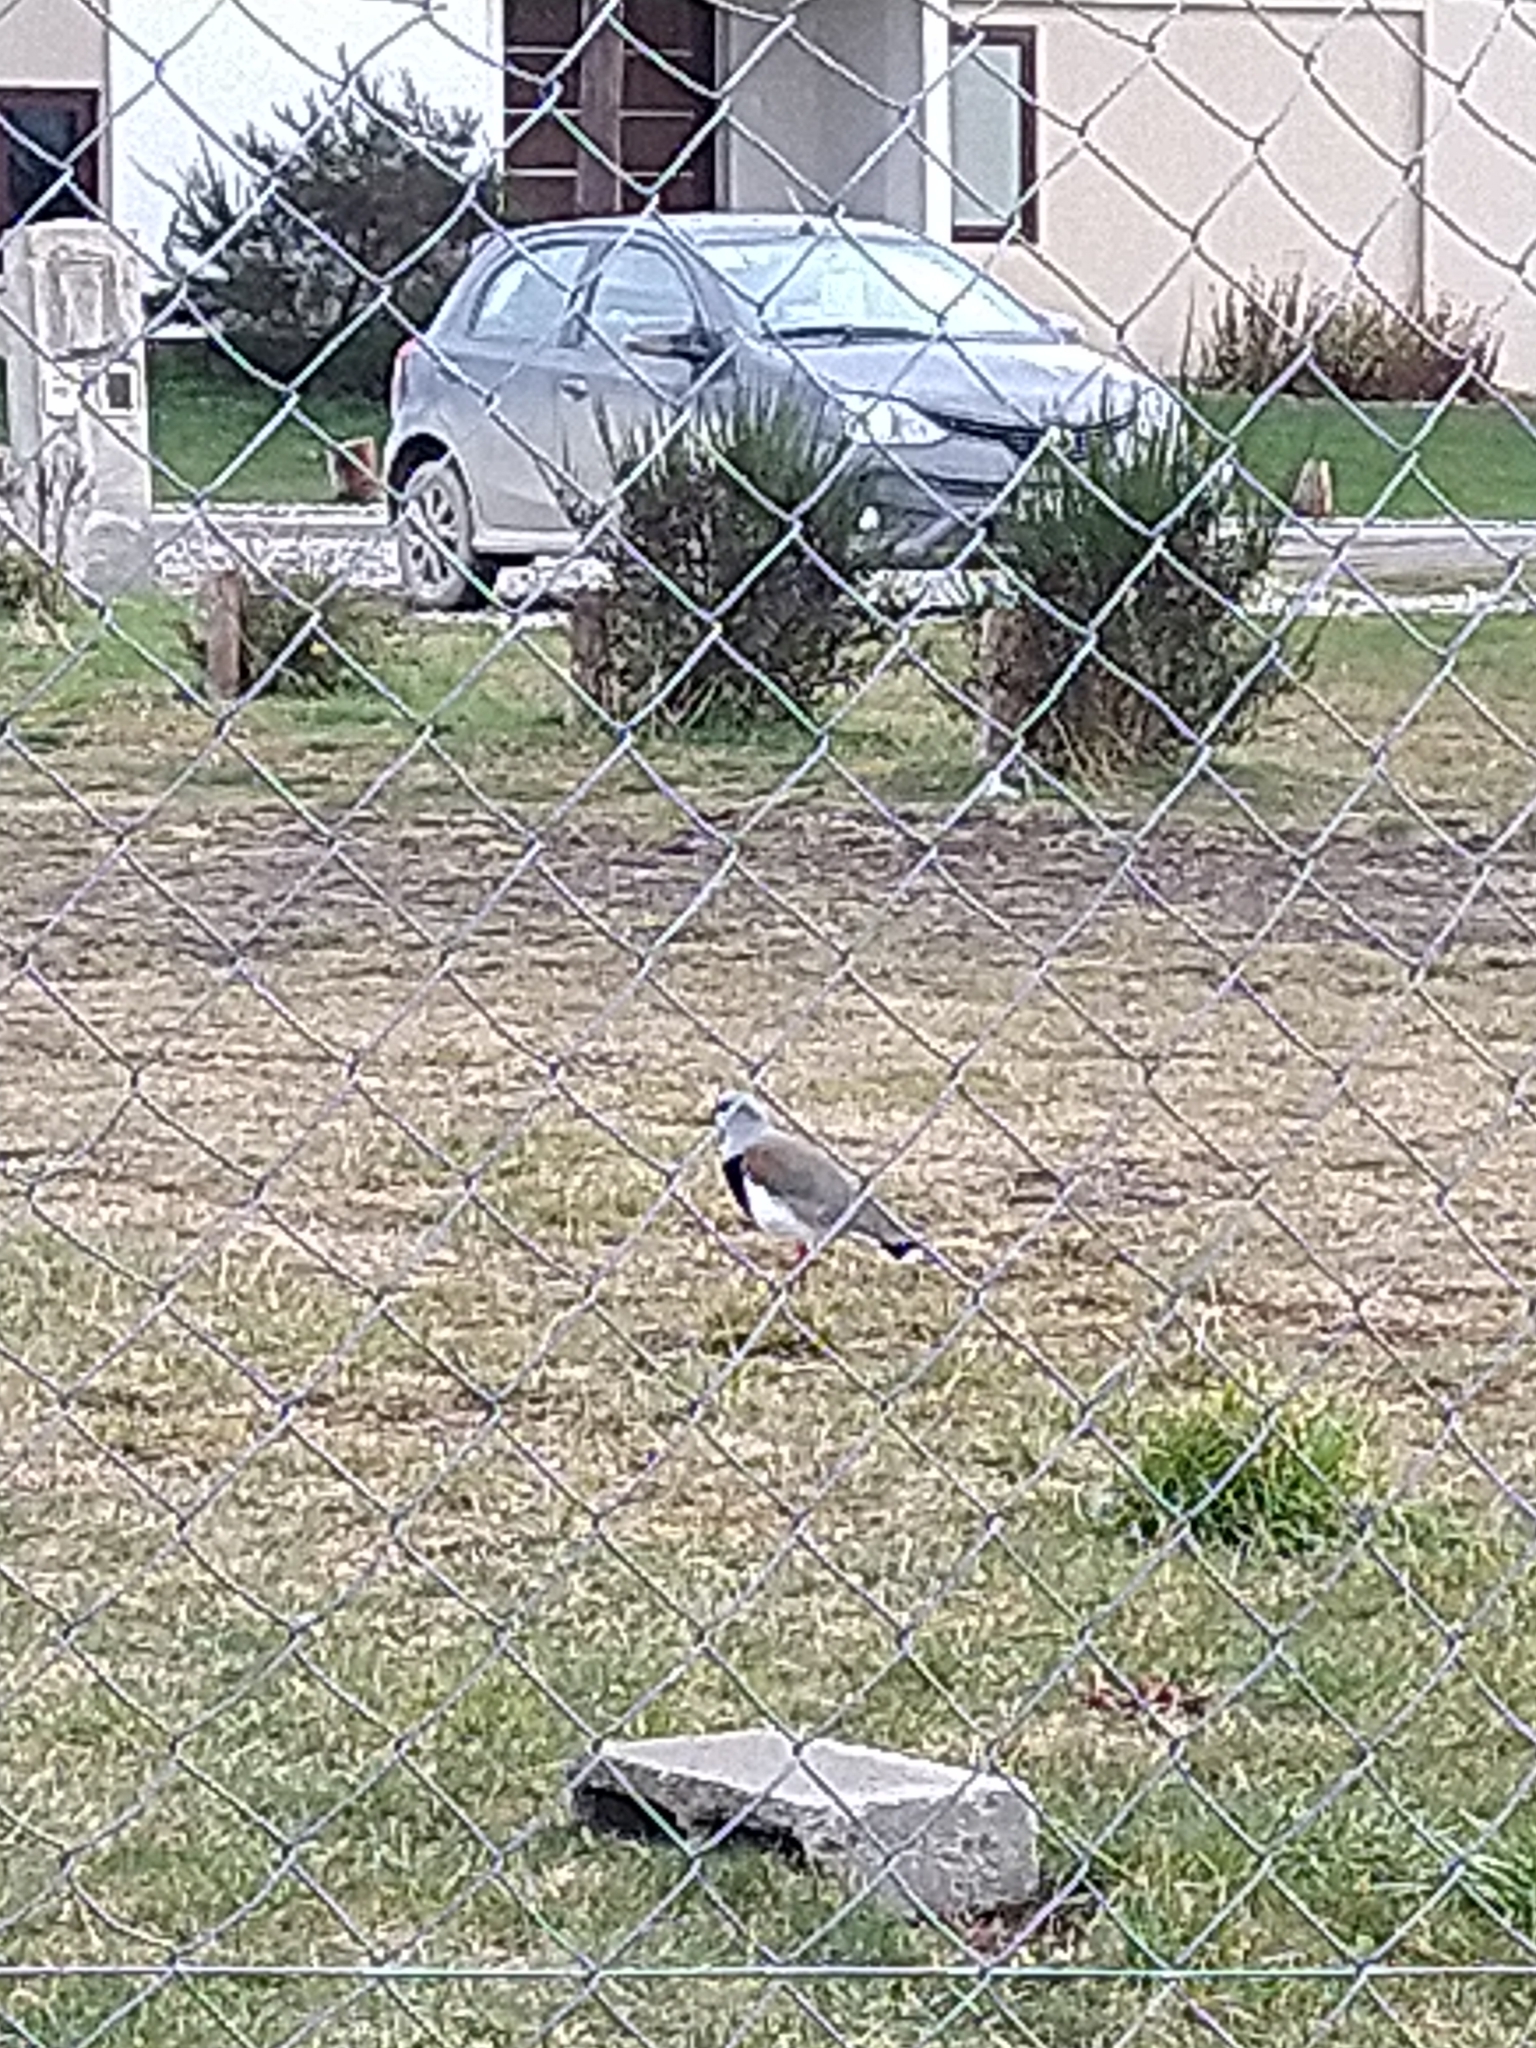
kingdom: Animalia
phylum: Chordata
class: Aves
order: Charadriiformes
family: Charadriidae
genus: Vanellus
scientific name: Vanellus chilensis
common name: Southern lapwing
